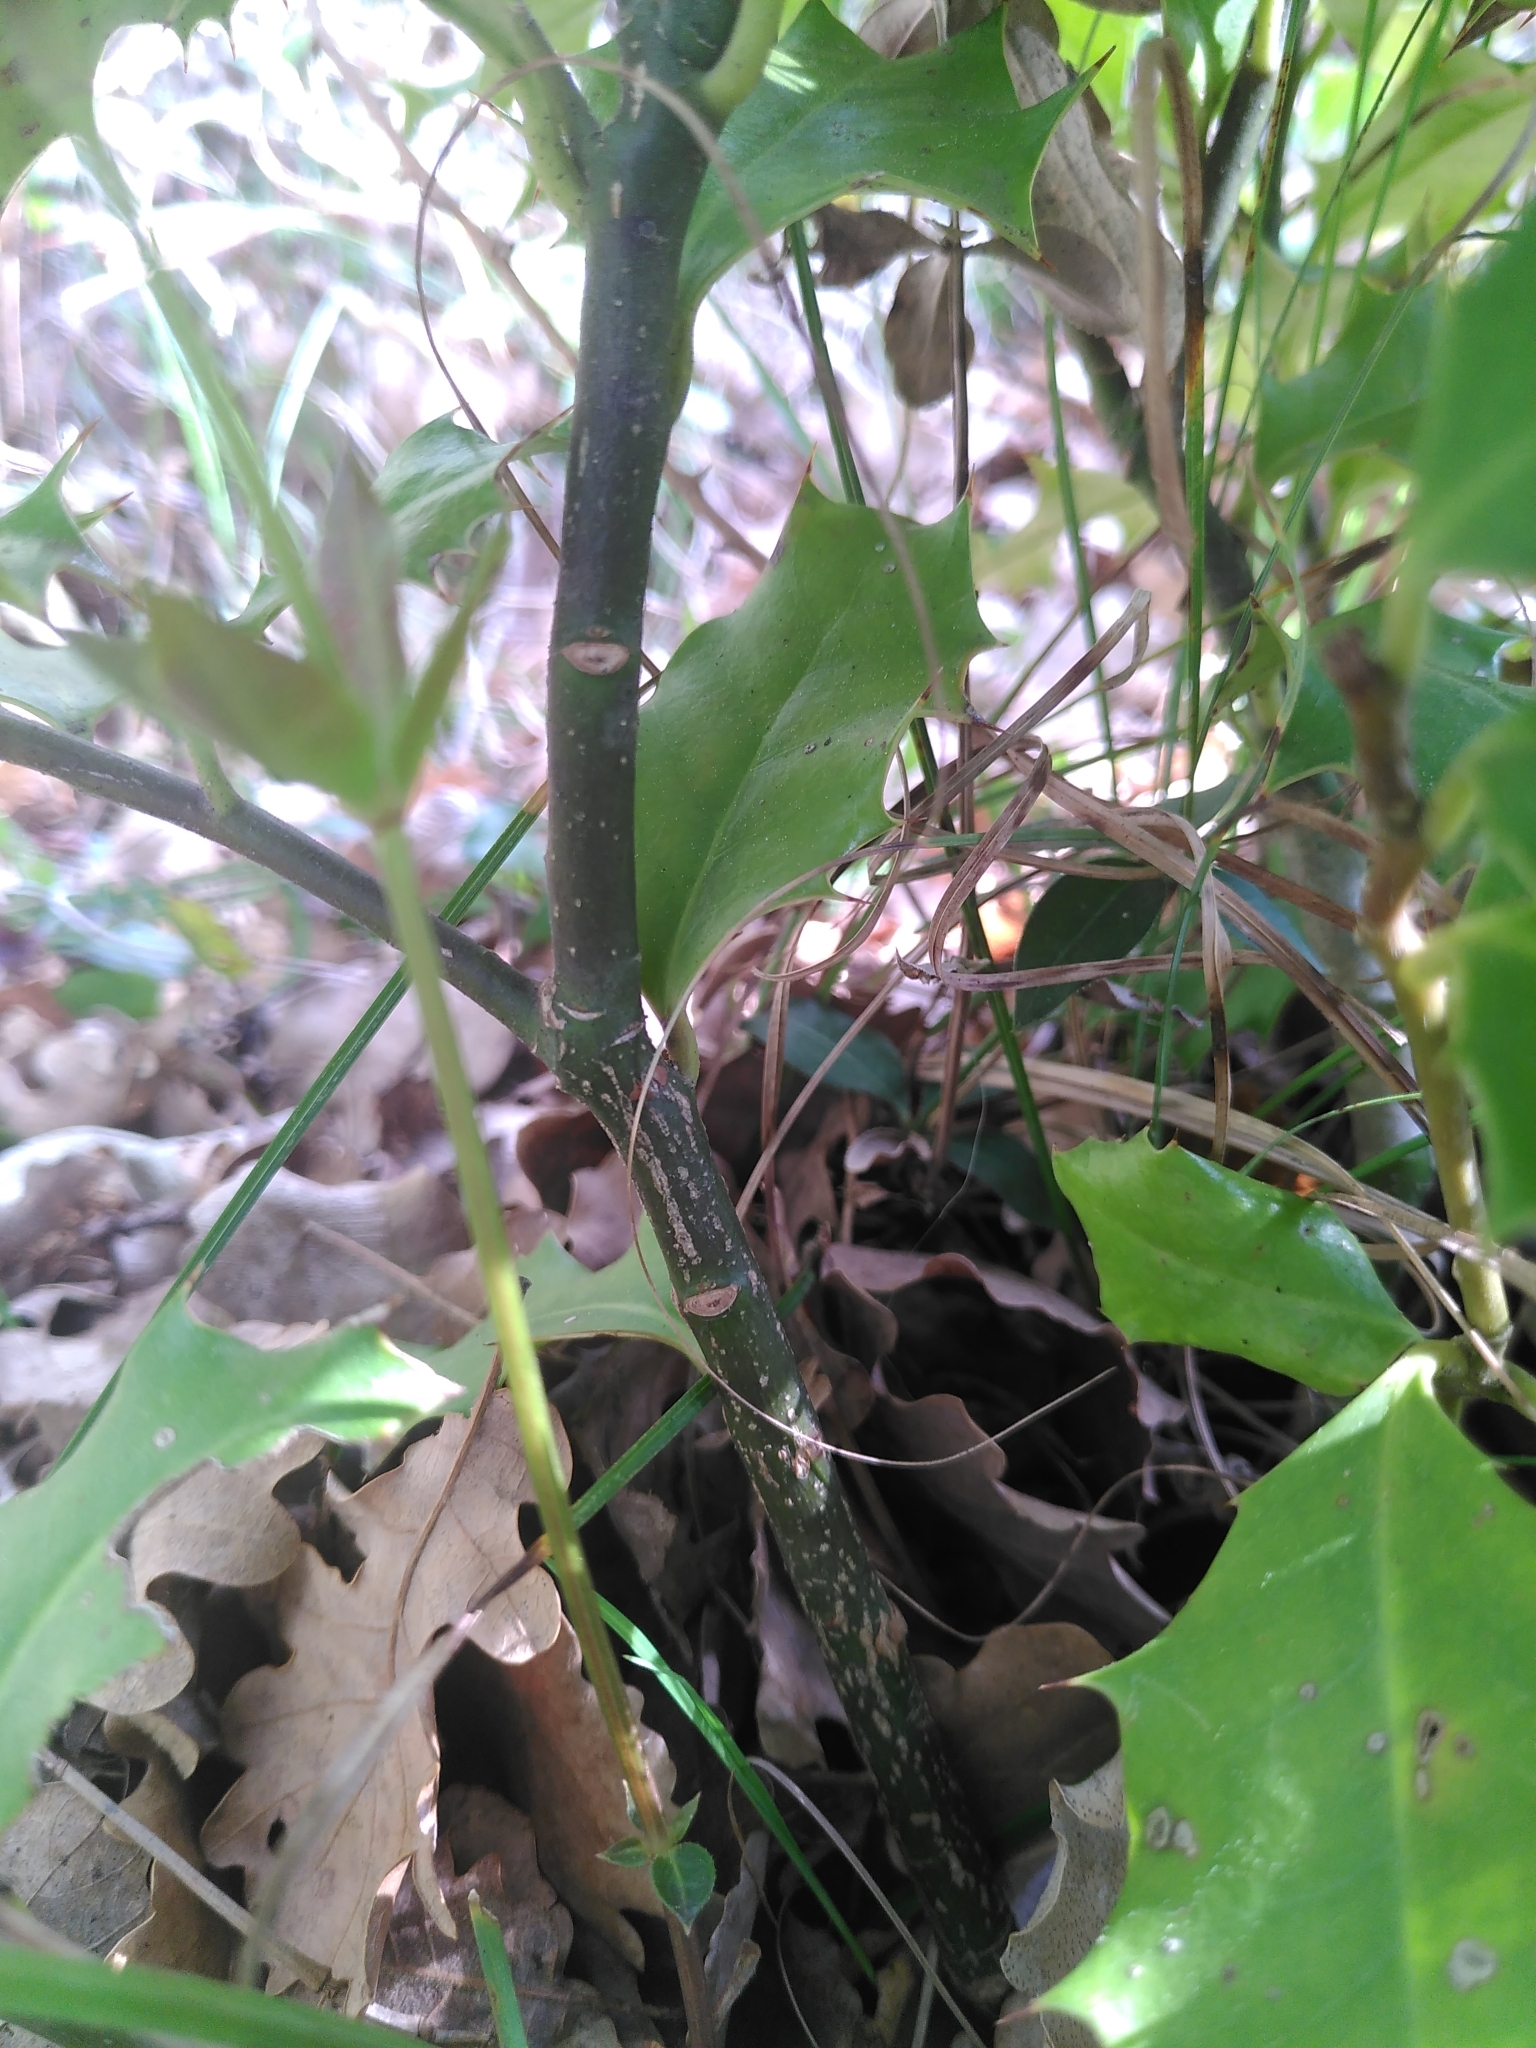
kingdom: Plantae
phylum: Tracheophyta
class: Magnoliopsida
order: Aquifoliales
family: Aquifoliaceae
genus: Ilex
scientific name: Ilex aquifolium
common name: English holly
